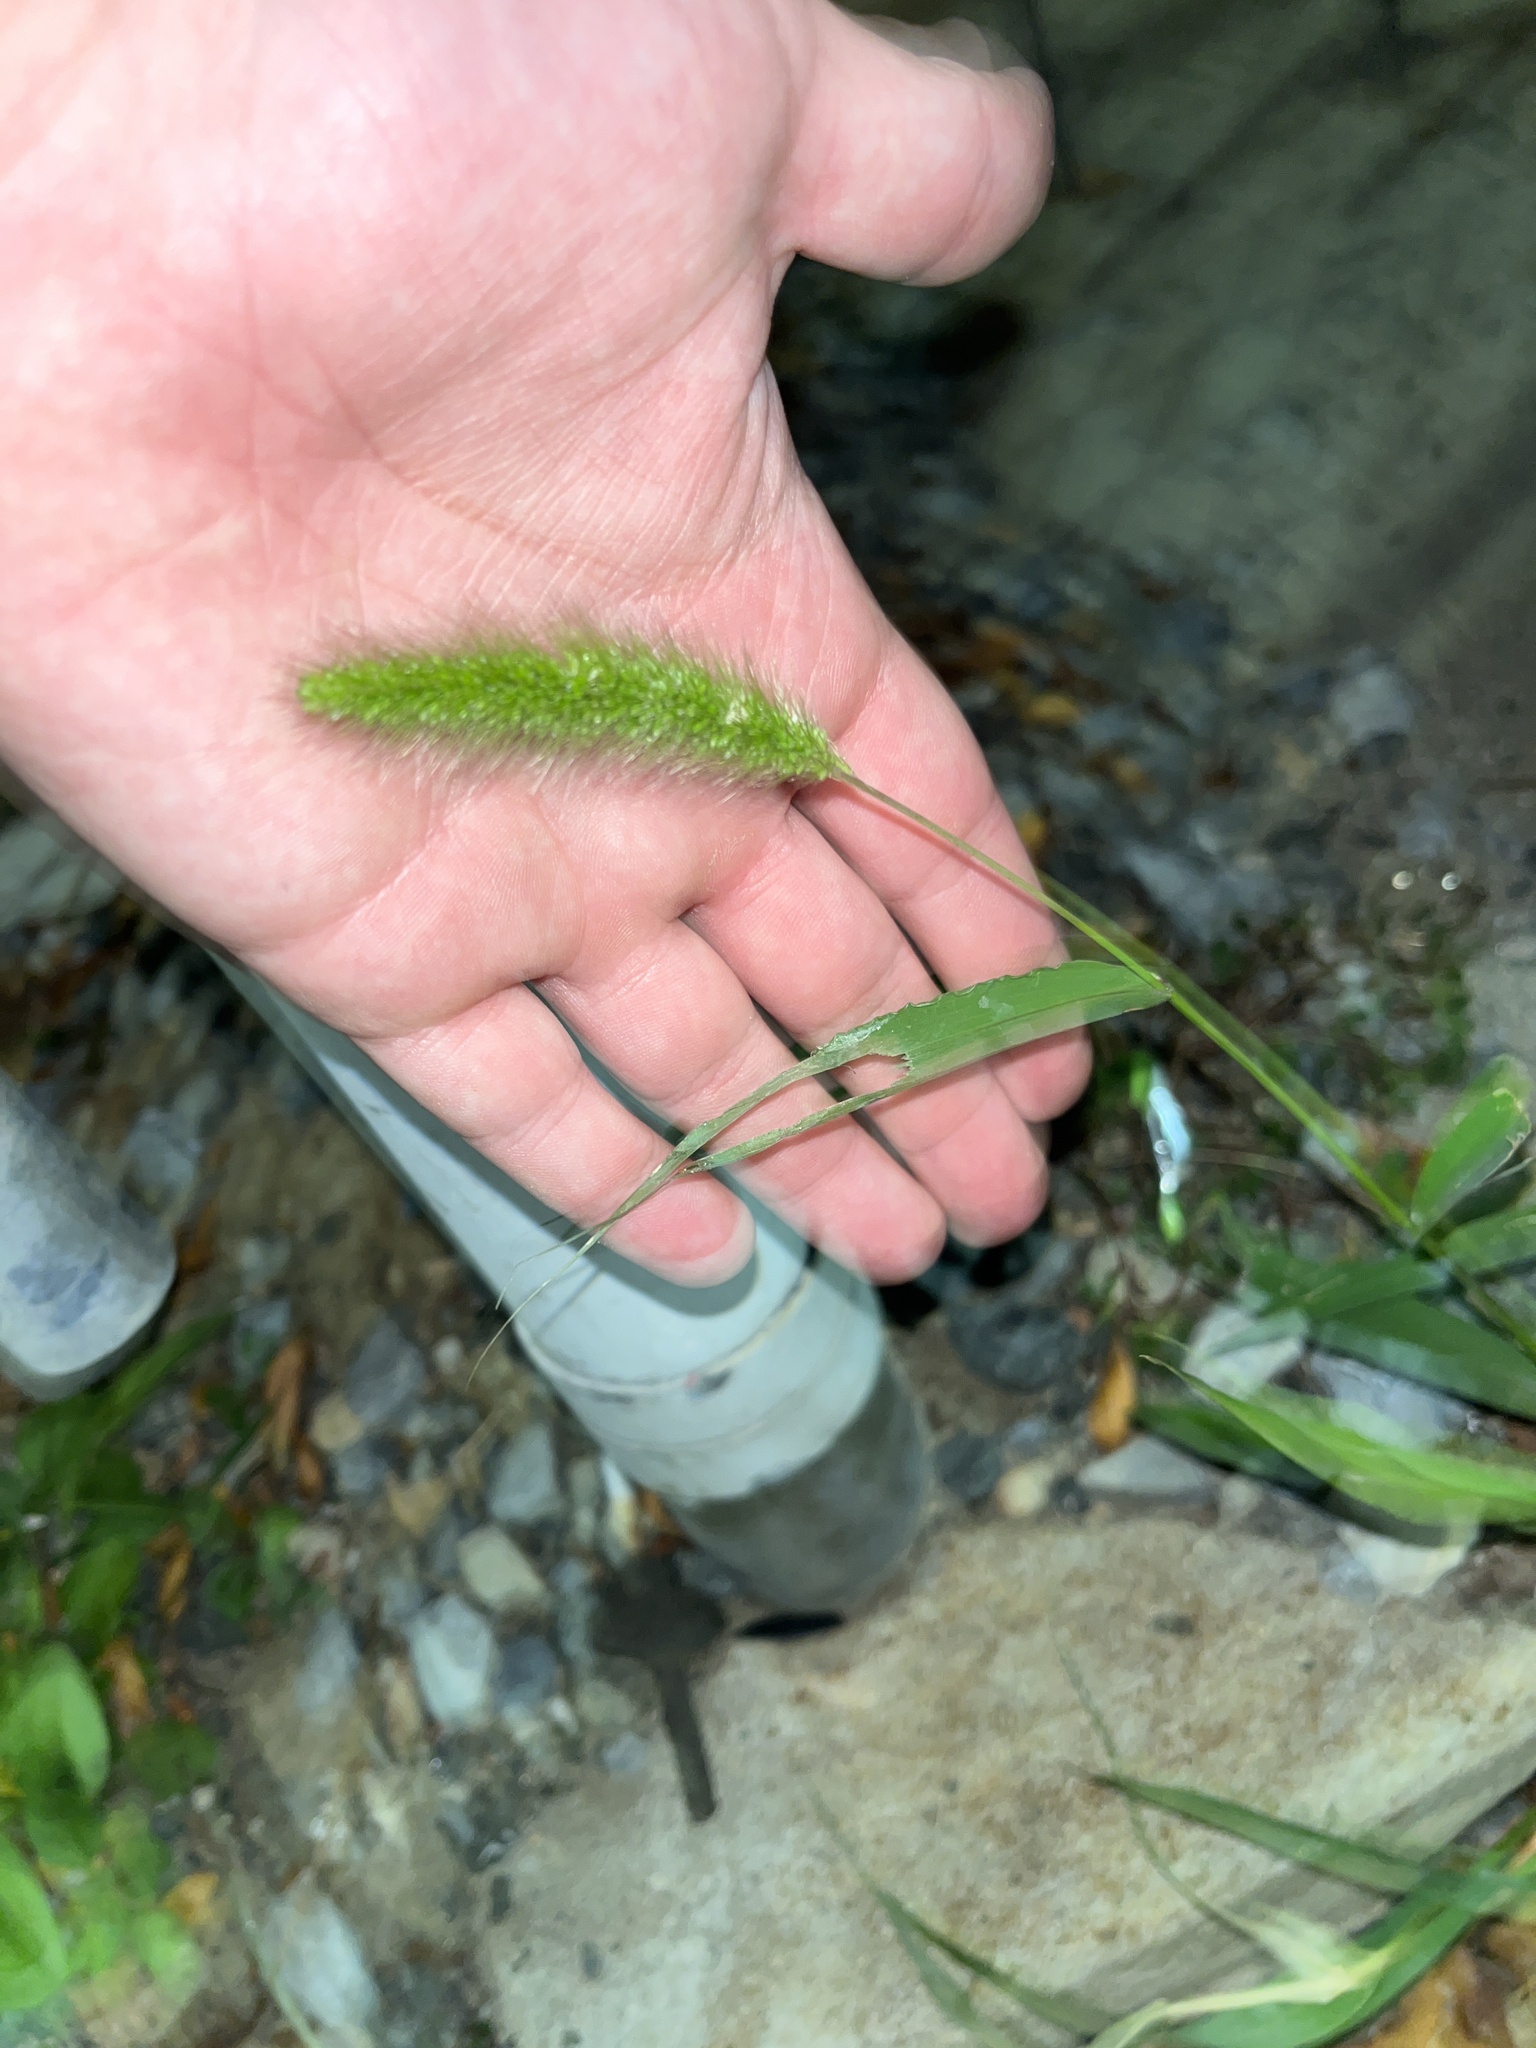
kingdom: Plantae
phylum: Tracheophyta
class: Liliopsida
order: Poales
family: Poaceae
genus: Setaria
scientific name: Setaria viridis
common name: Green bristlegrass
